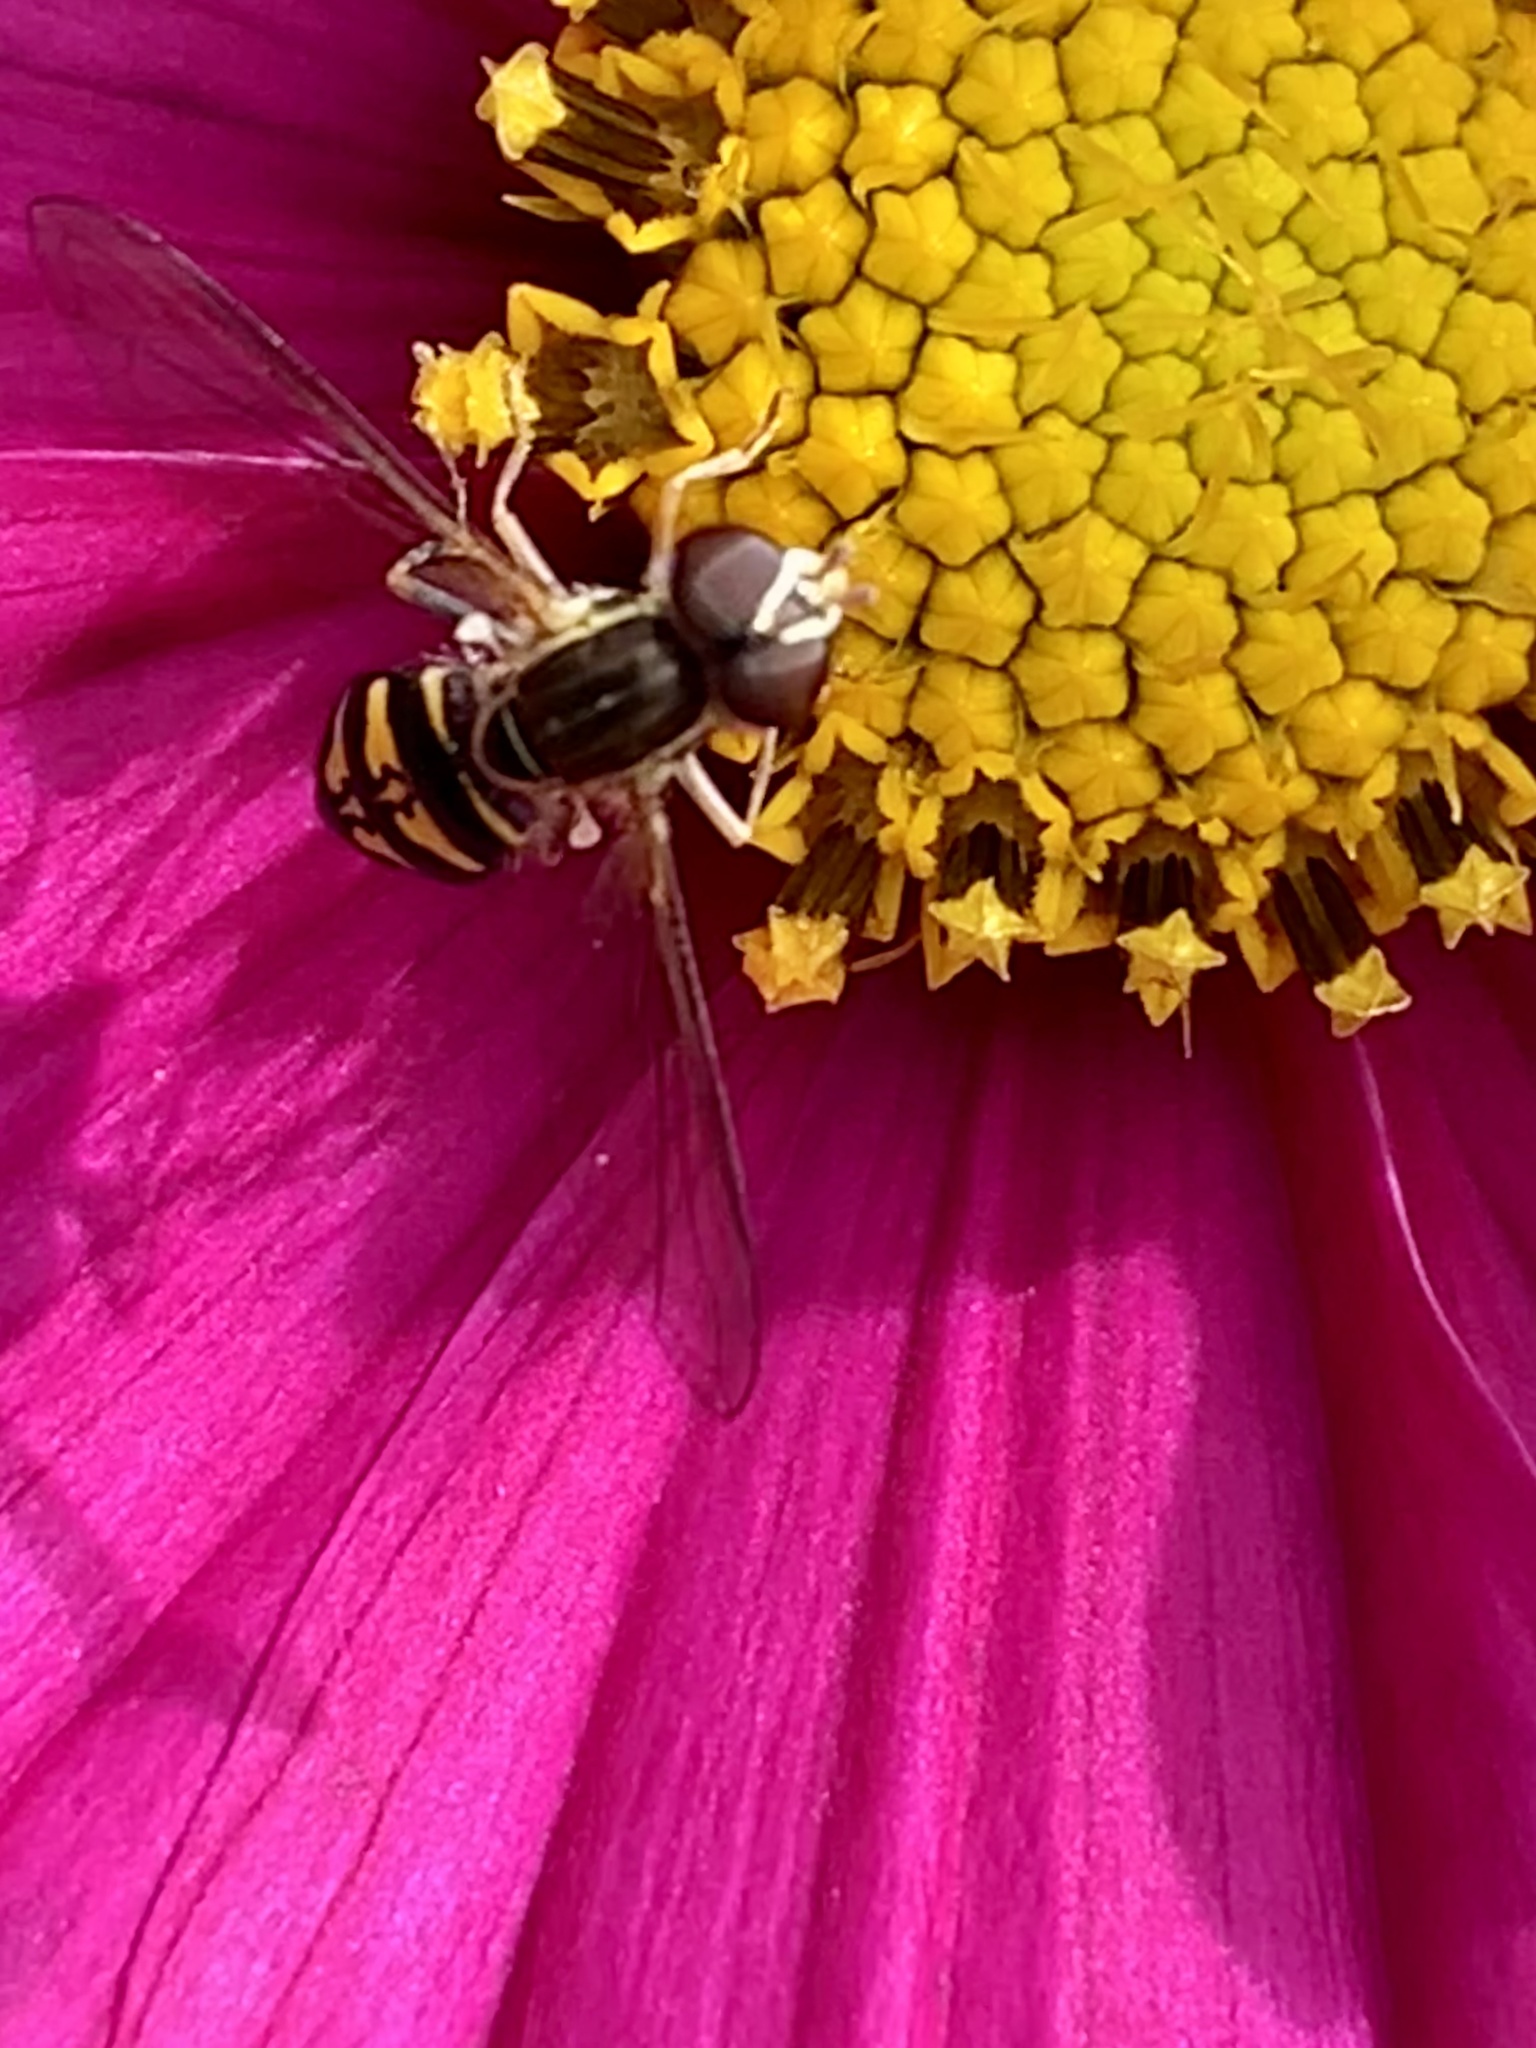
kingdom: Animalia
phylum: Arthropoda
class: Insecta
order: Diptera
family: Syrphidae
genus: Toxomerus
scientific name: Toxomerus occidentalis
